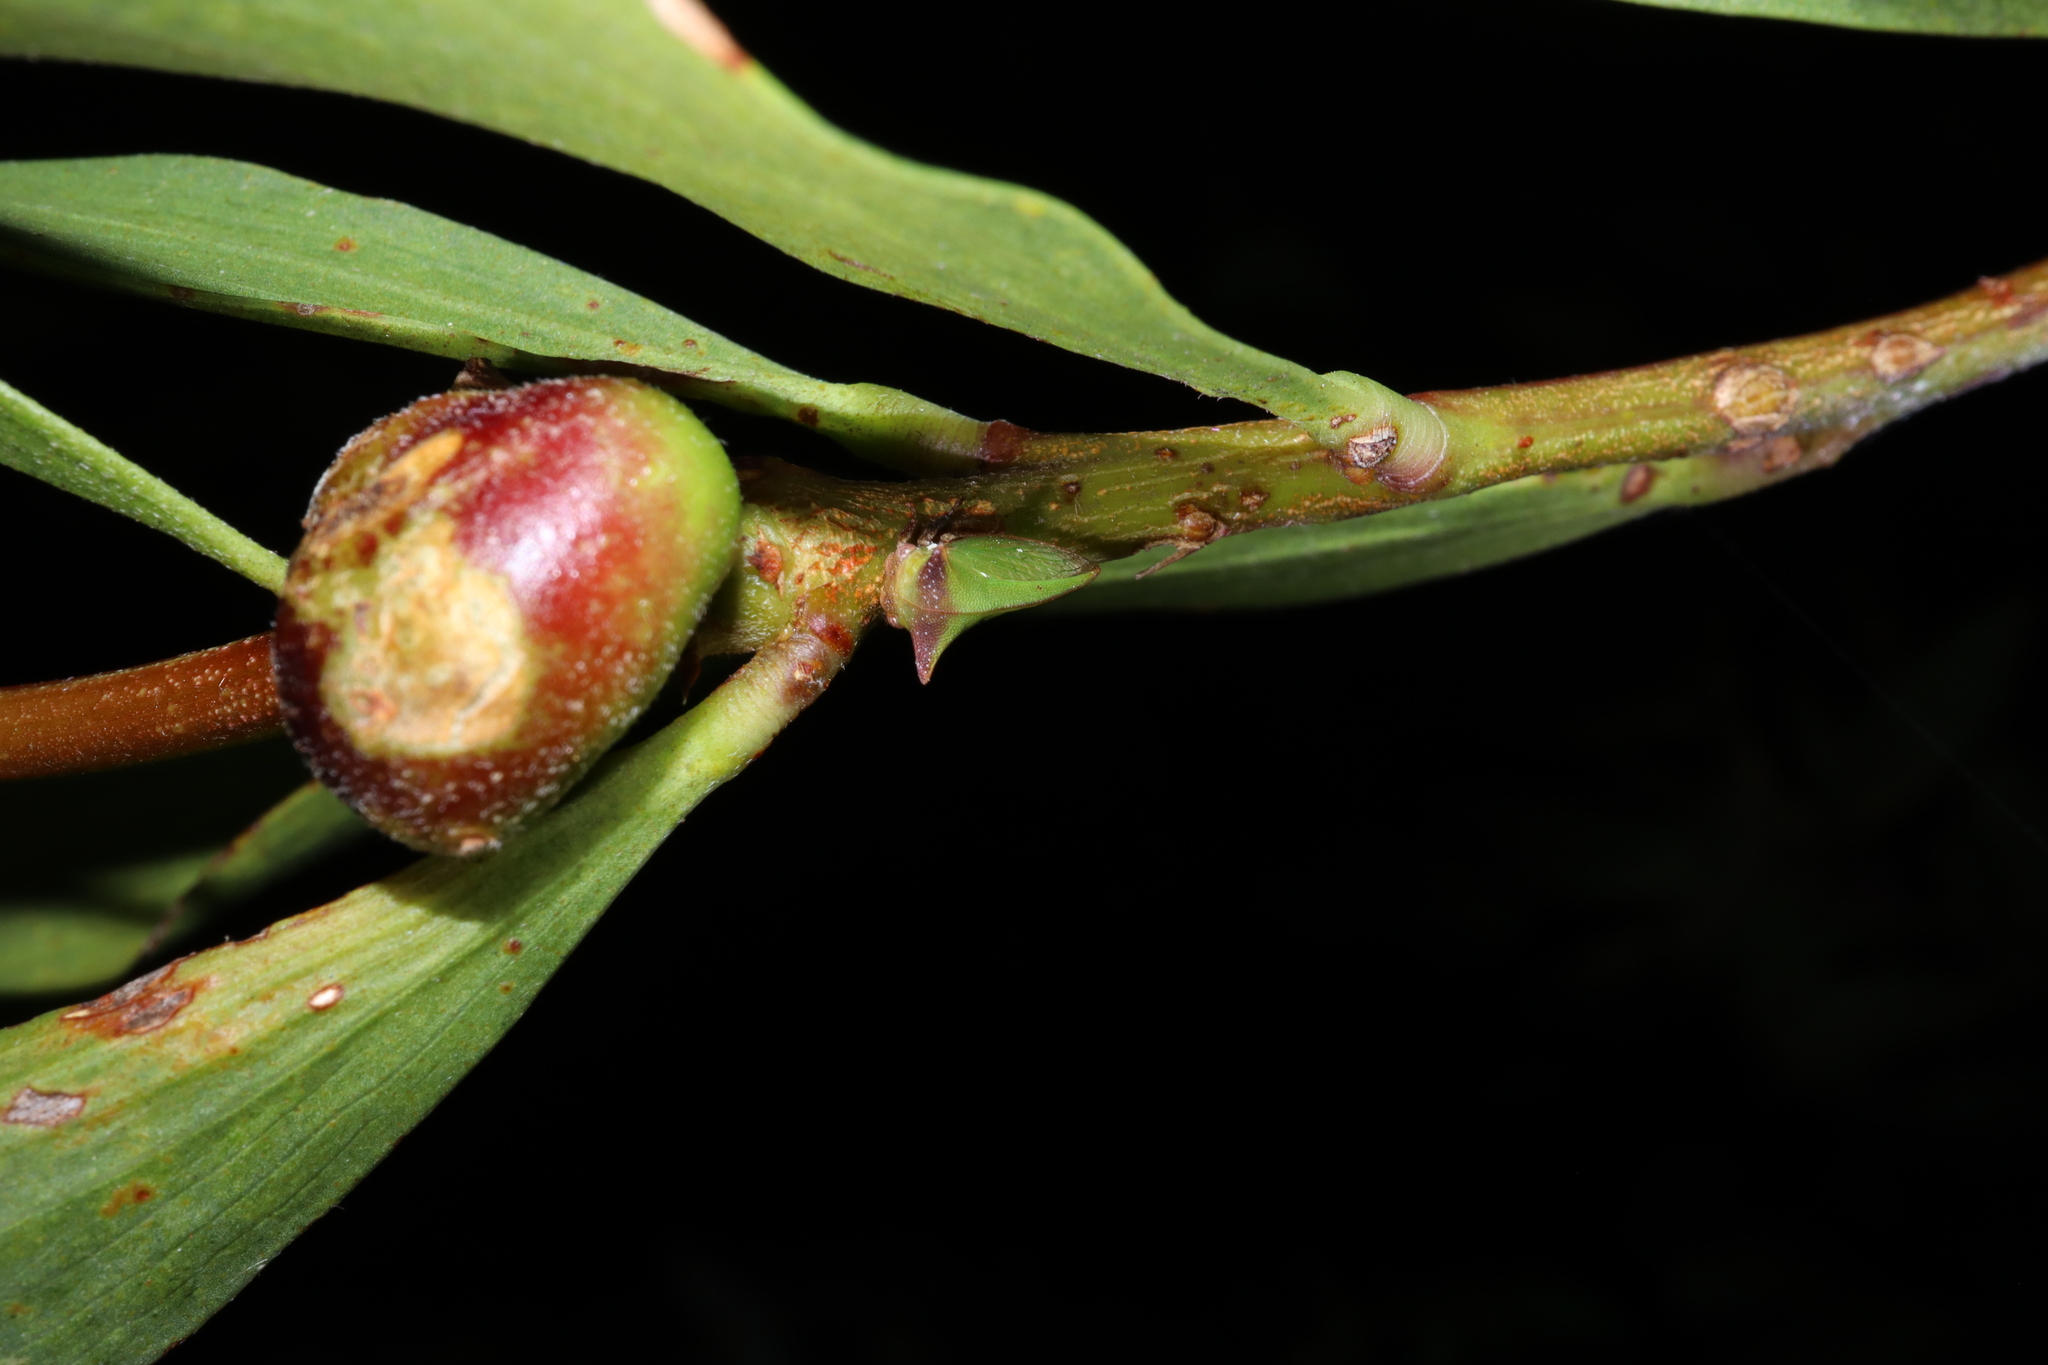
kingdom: Animalia
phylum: Arthropoda
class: Insecta
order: Hemiptera
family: Membracidae
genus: Sextius
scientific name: Sextius virescens
